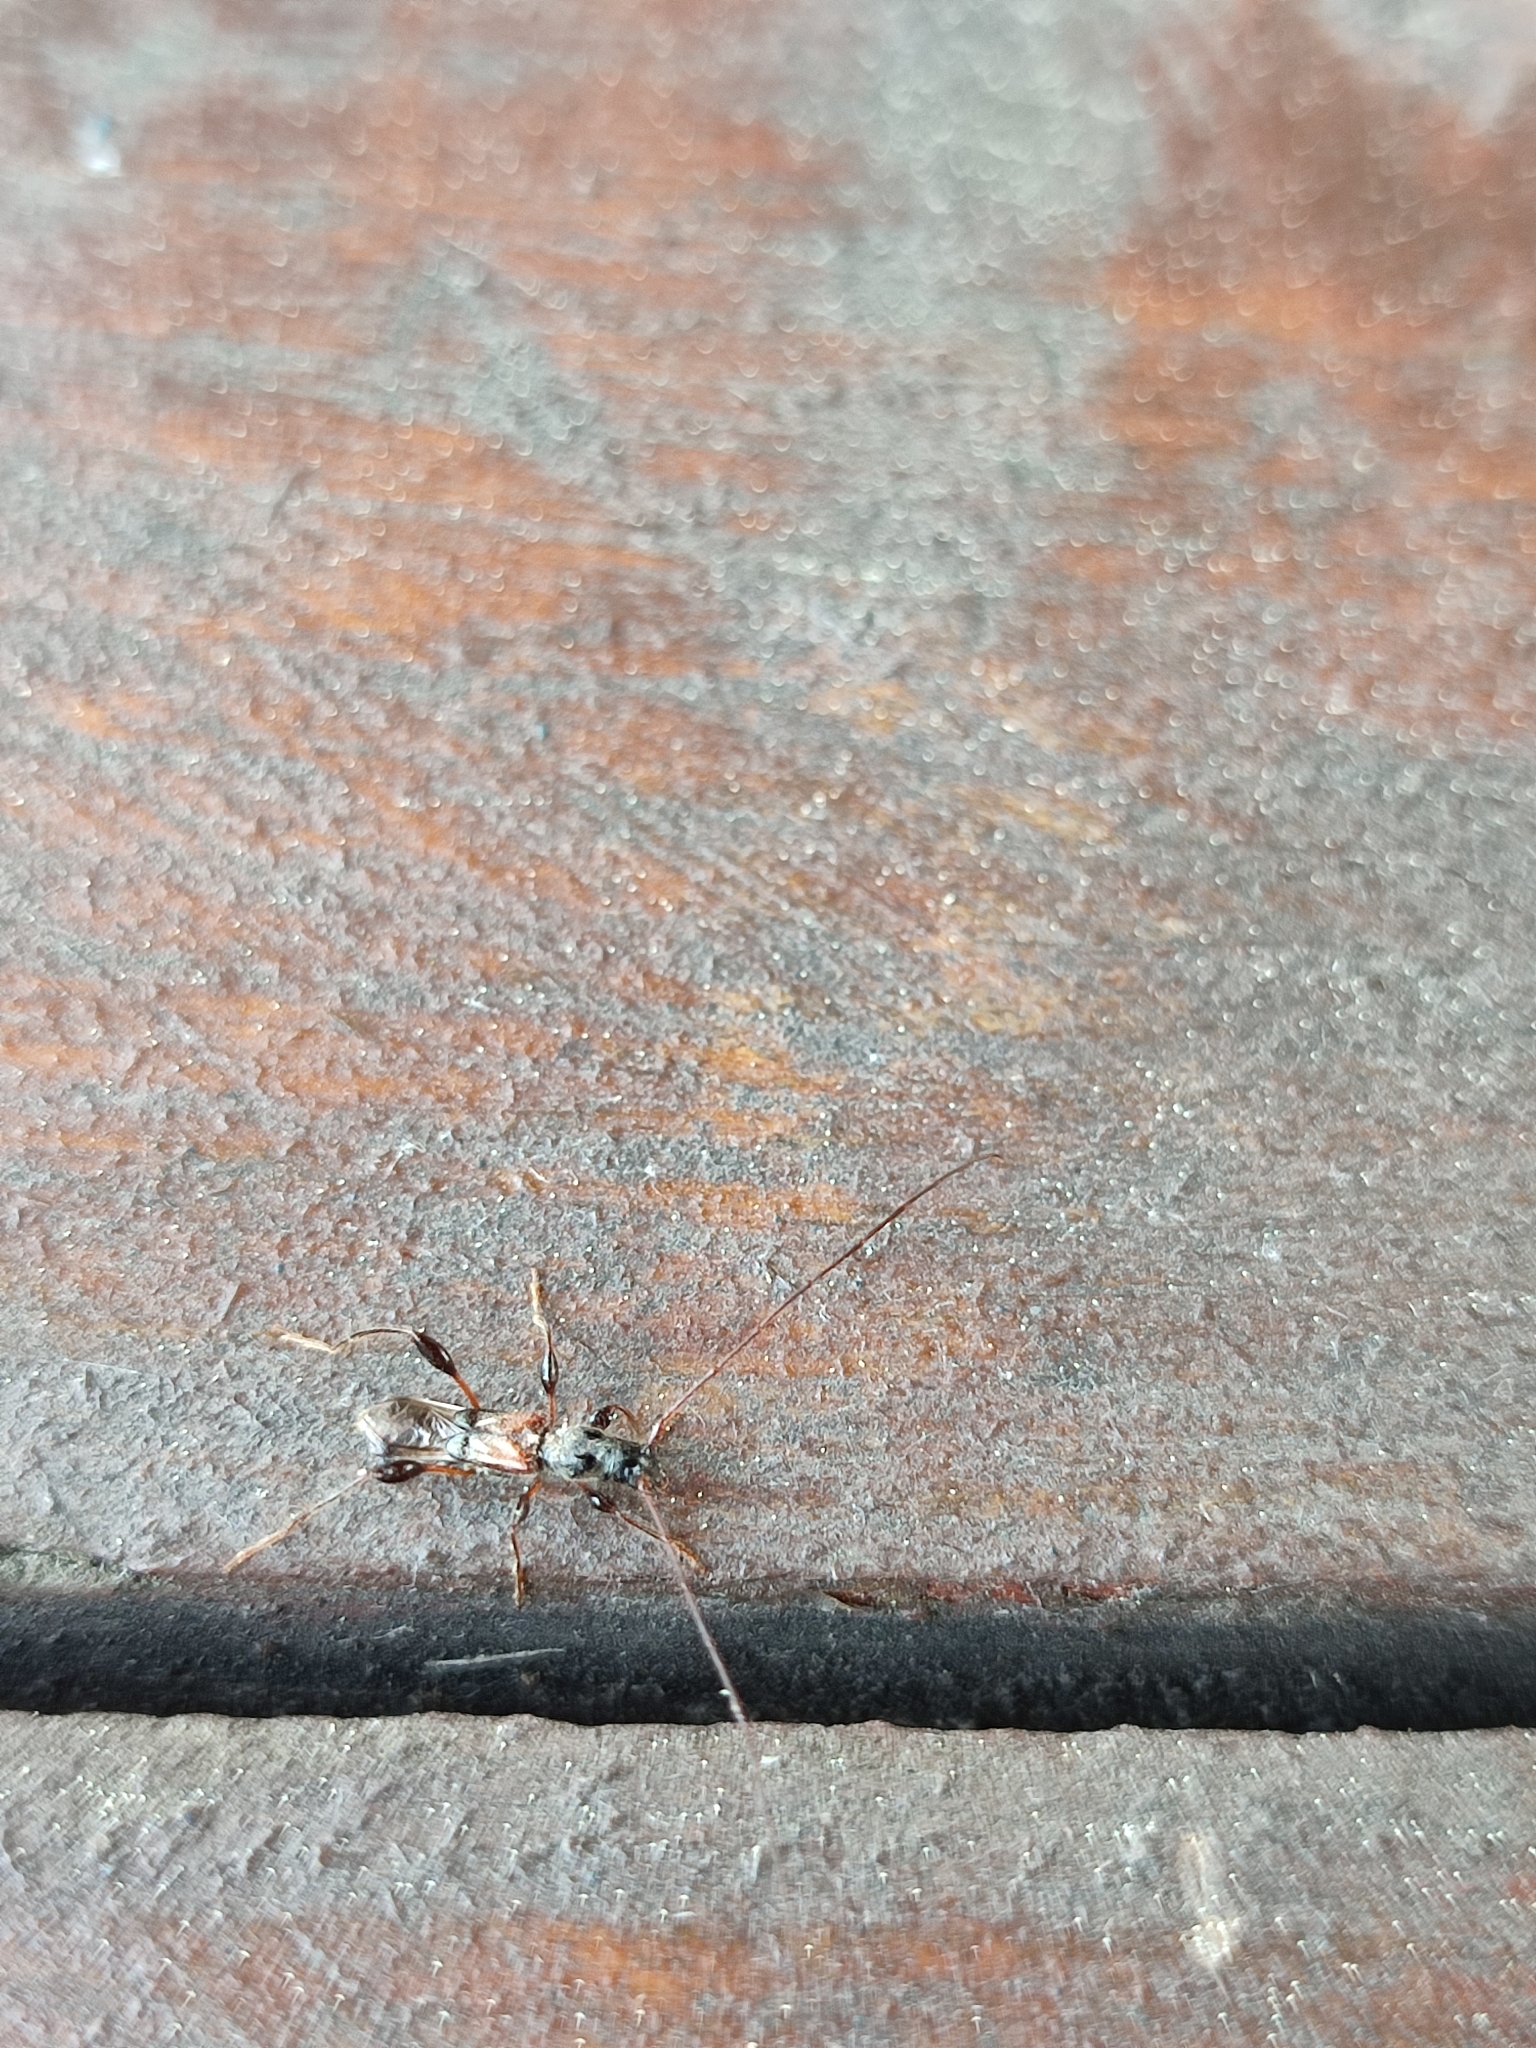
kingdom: Animalia
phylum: Arthropoda
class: Insecta
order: Coleoptera
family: Cerambycidae
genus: Molorchus
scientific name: Molorchus minor
